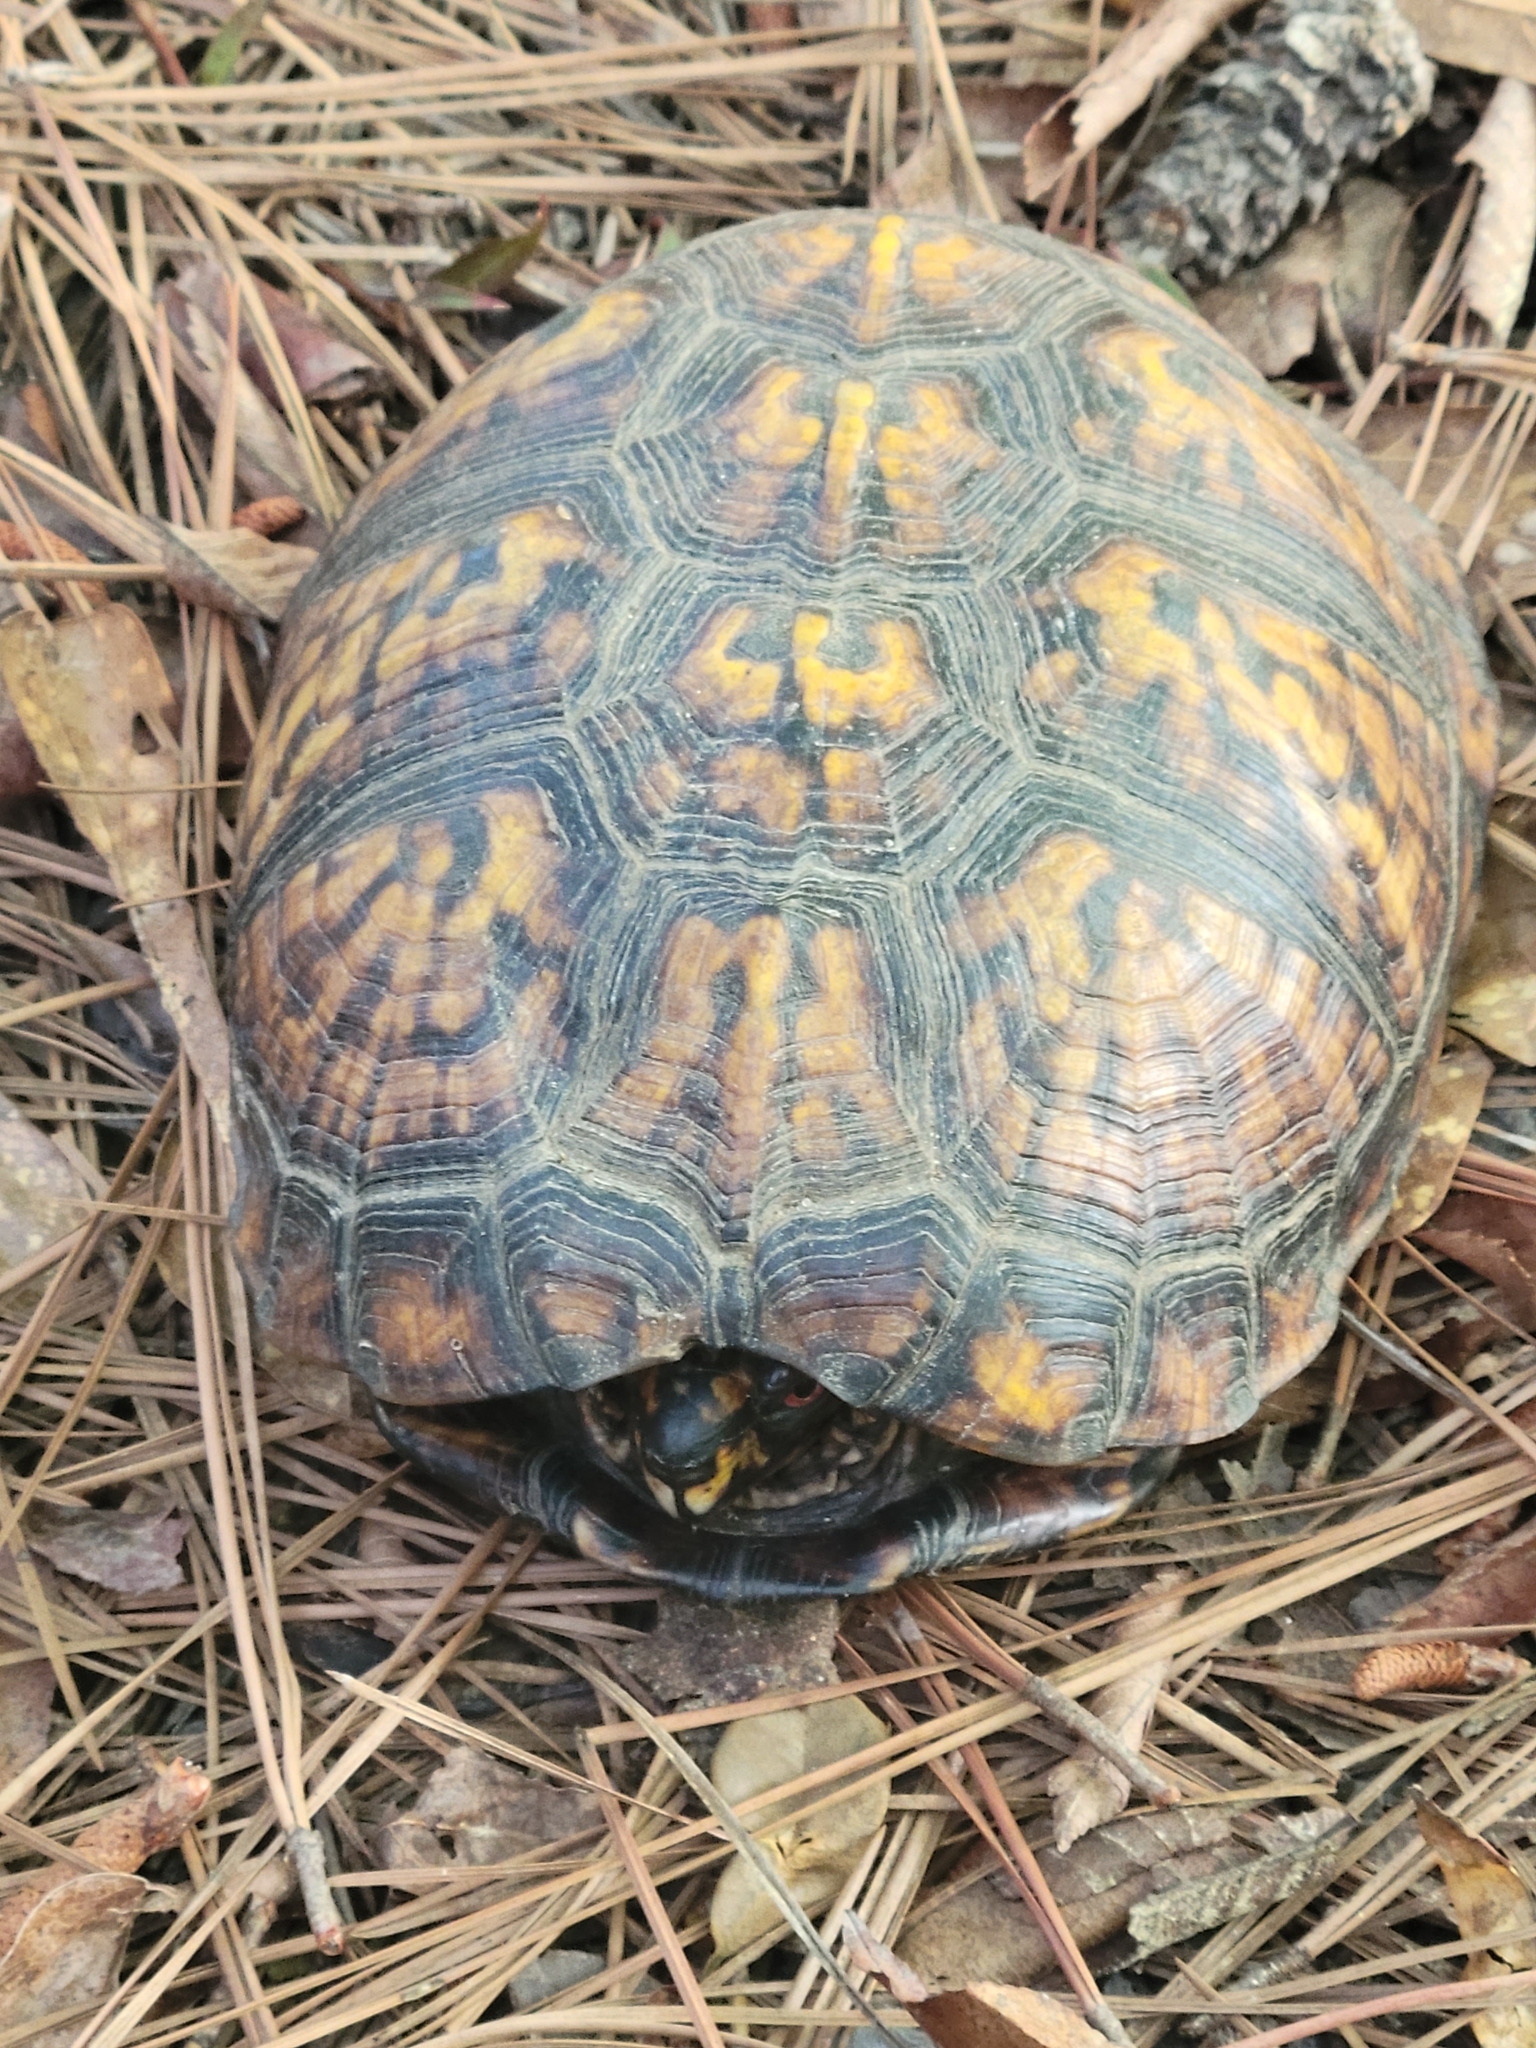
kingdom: Animalia
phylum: Chordata
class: Testudines
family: Emydidae
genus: Terrapene
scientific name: Terrapene carolina
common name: Common box turtle
